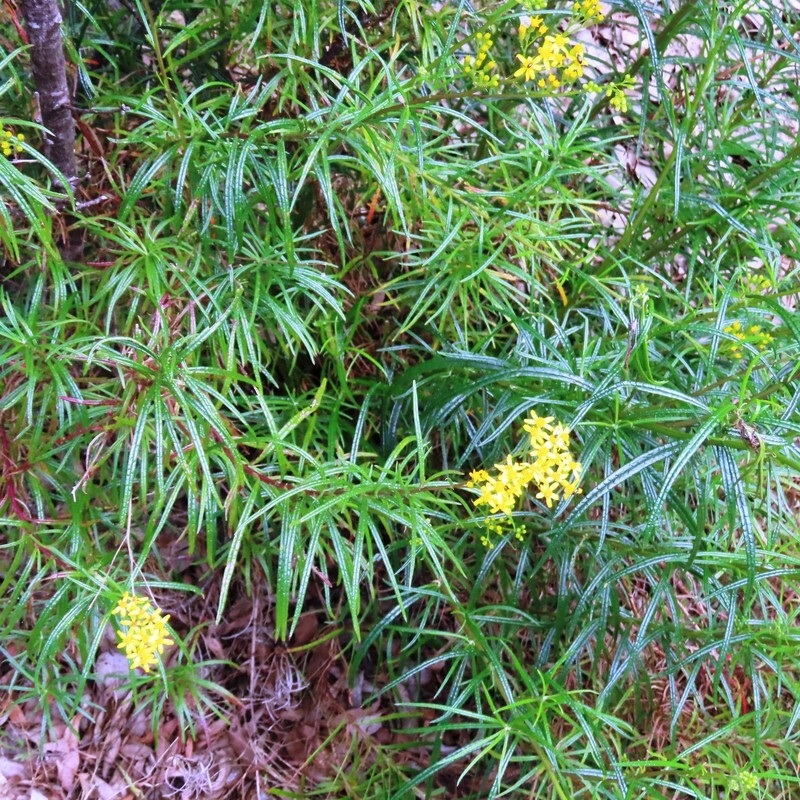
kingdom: Plantae
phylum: Tracheophyta
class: Magnoliopsida
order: Asterales
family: Asteraceae
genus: Senecio
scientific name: Senecio linearifolius
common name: Fireweed groundsel
